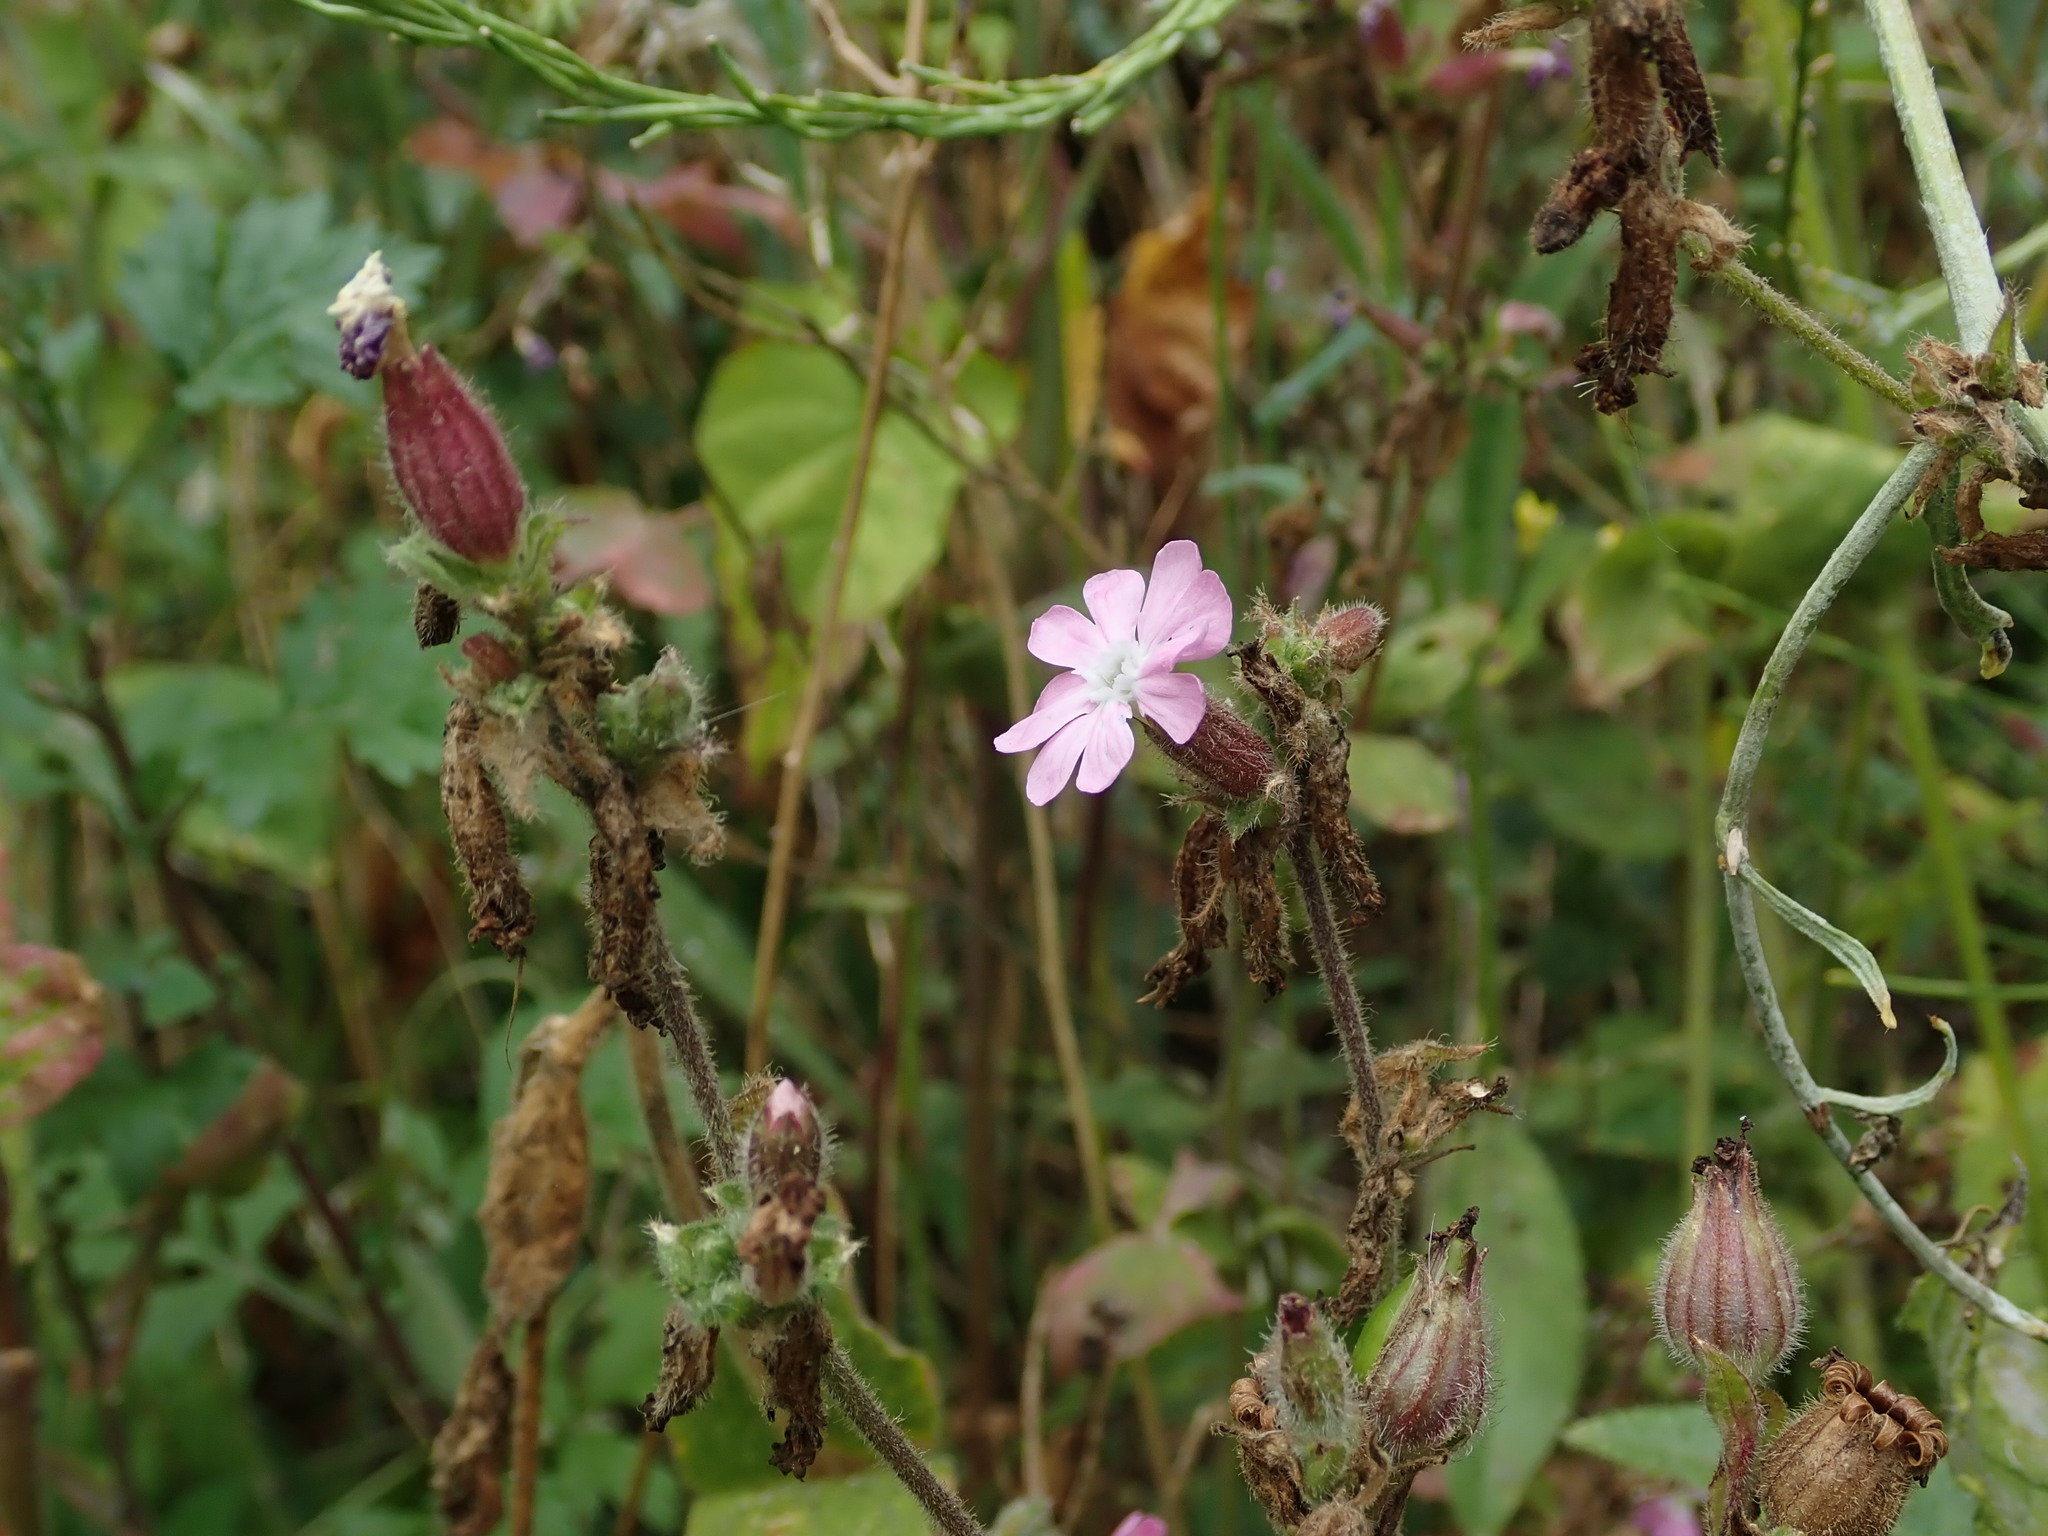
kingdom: Plantae
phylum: Tracheophyta
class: Magnoliopsida
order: Caryophyllales
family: Caryophyllaceae
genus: Silene
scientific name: Silene dioica
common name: Red campion
